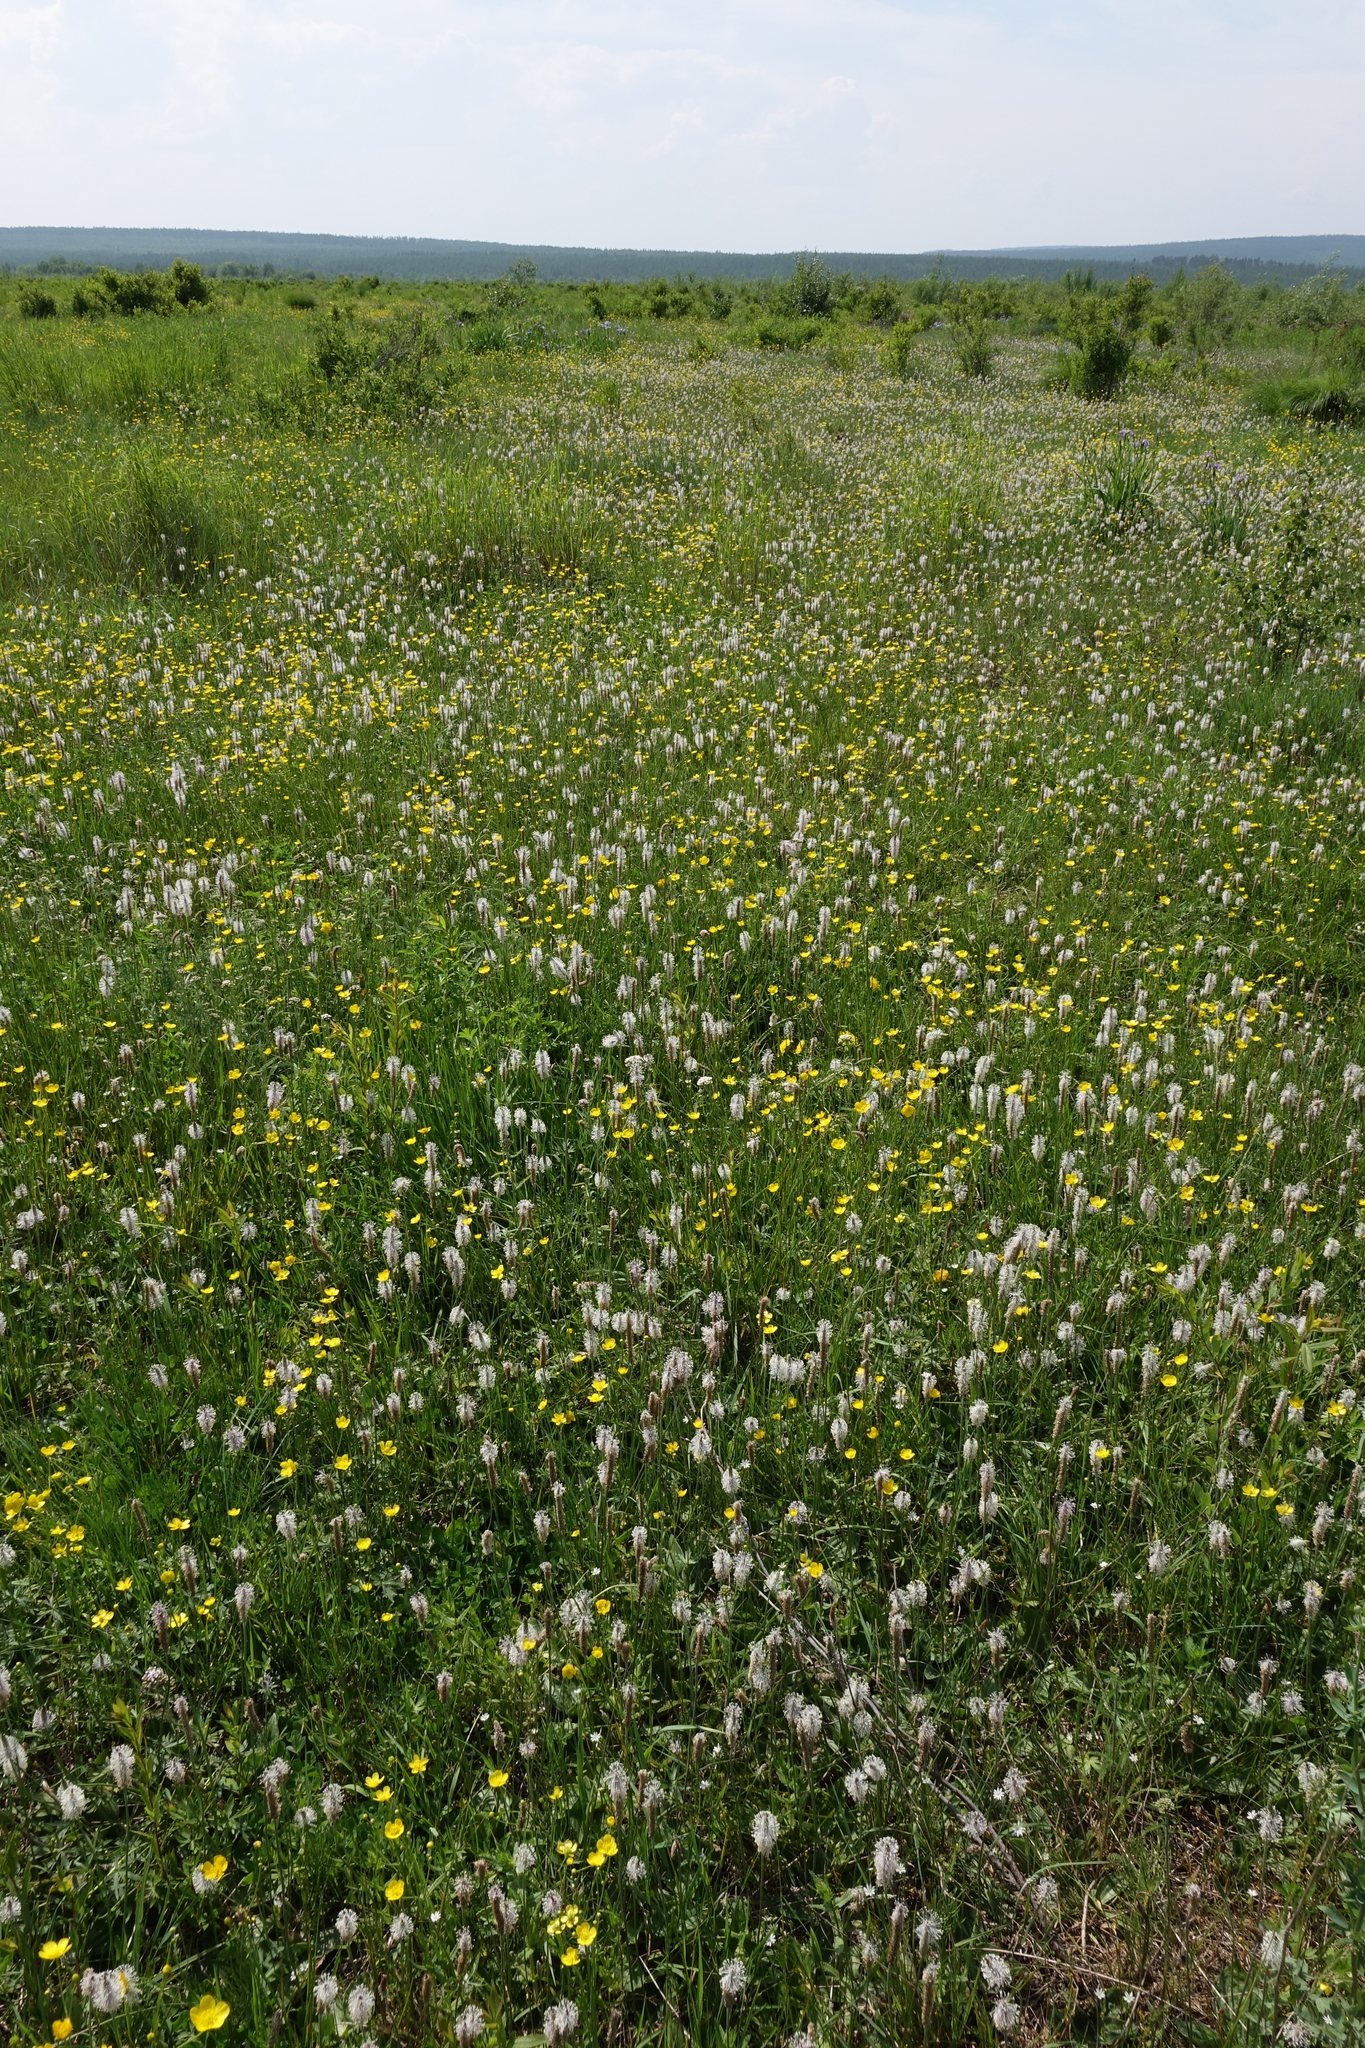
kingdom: Plantae
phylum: Tracheophyta
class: Magnoliopsida
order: Lamiales
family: Plantaginaceae
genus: Plantago
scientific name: Plantago media
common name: Hoary plantain
